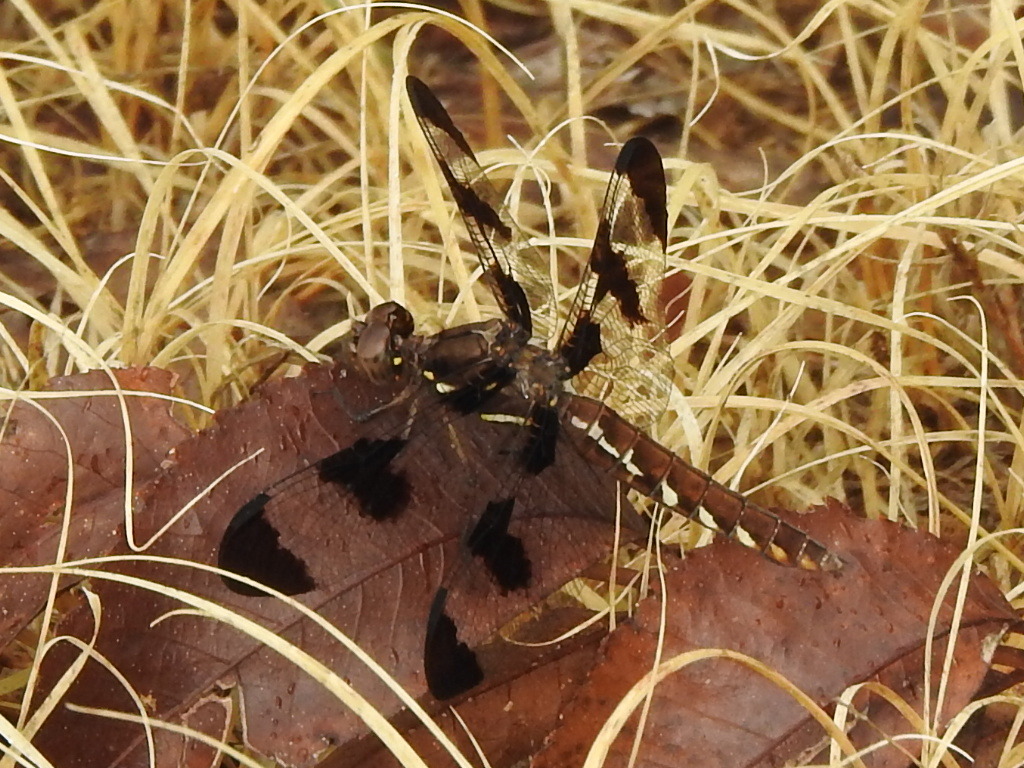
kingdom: Animalia
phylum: Arthropoda
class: Insecta
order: Odonata
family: Libellulidae
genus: Plathemis
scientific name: Plathemis lydia
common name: Common whitetail
